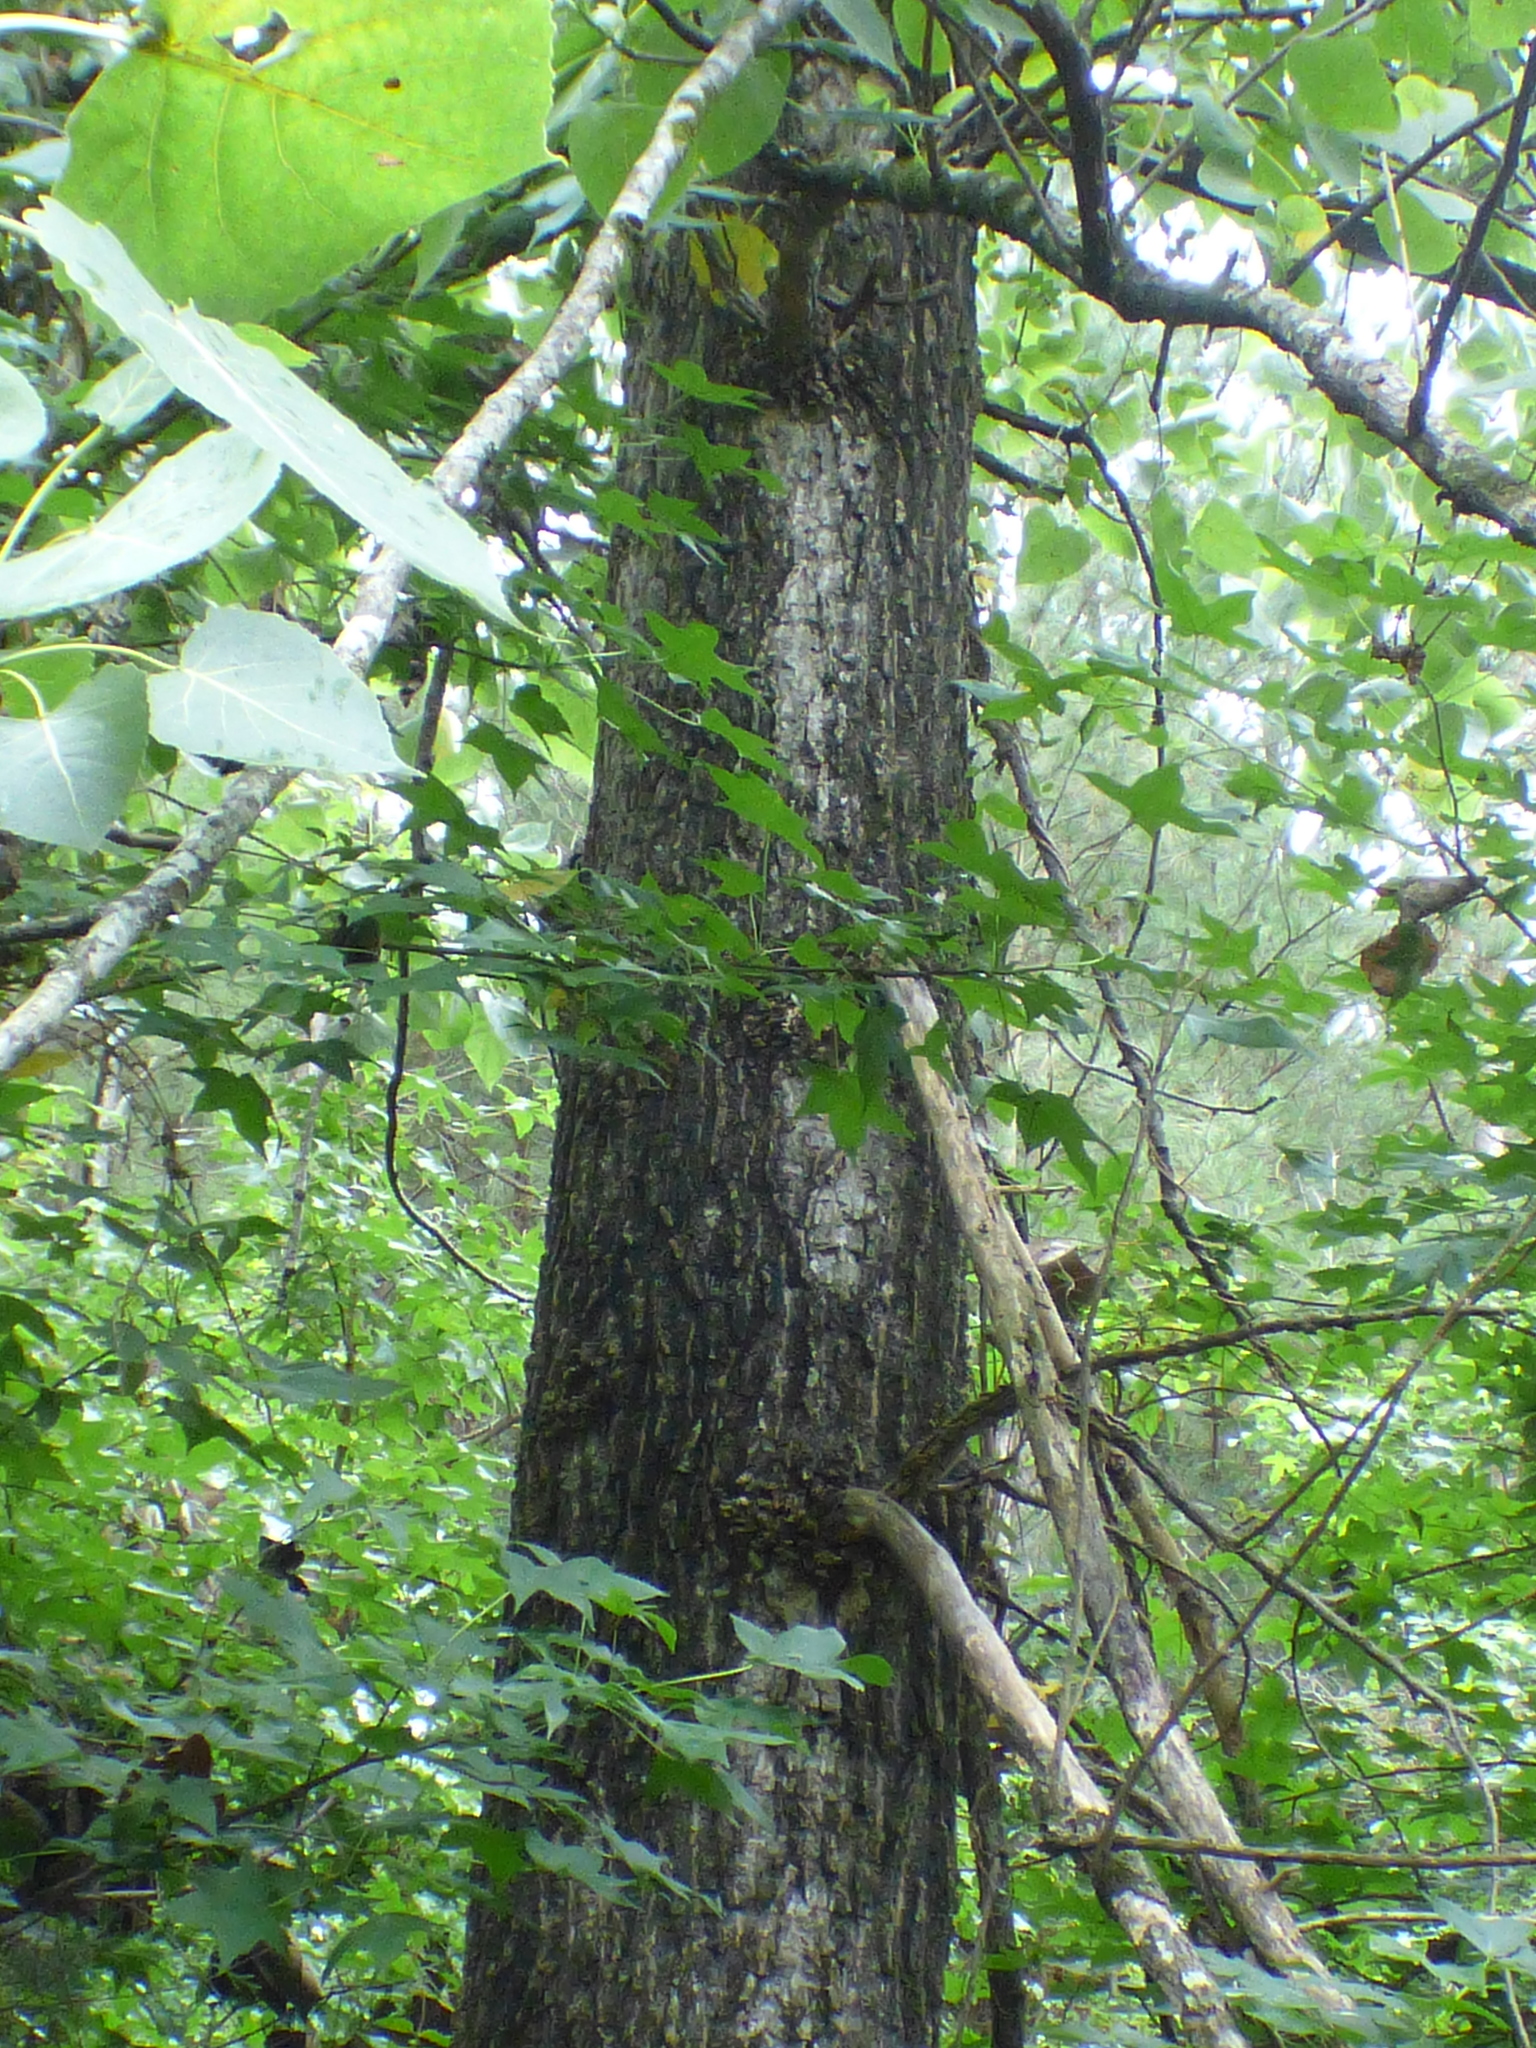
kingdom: Plantae
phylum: Tracheophyta
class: Magnoliopsida
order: Malpighiales
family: Salicaceae
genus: Populus
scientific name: Populus deltoides
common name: Eastern cottonwood
